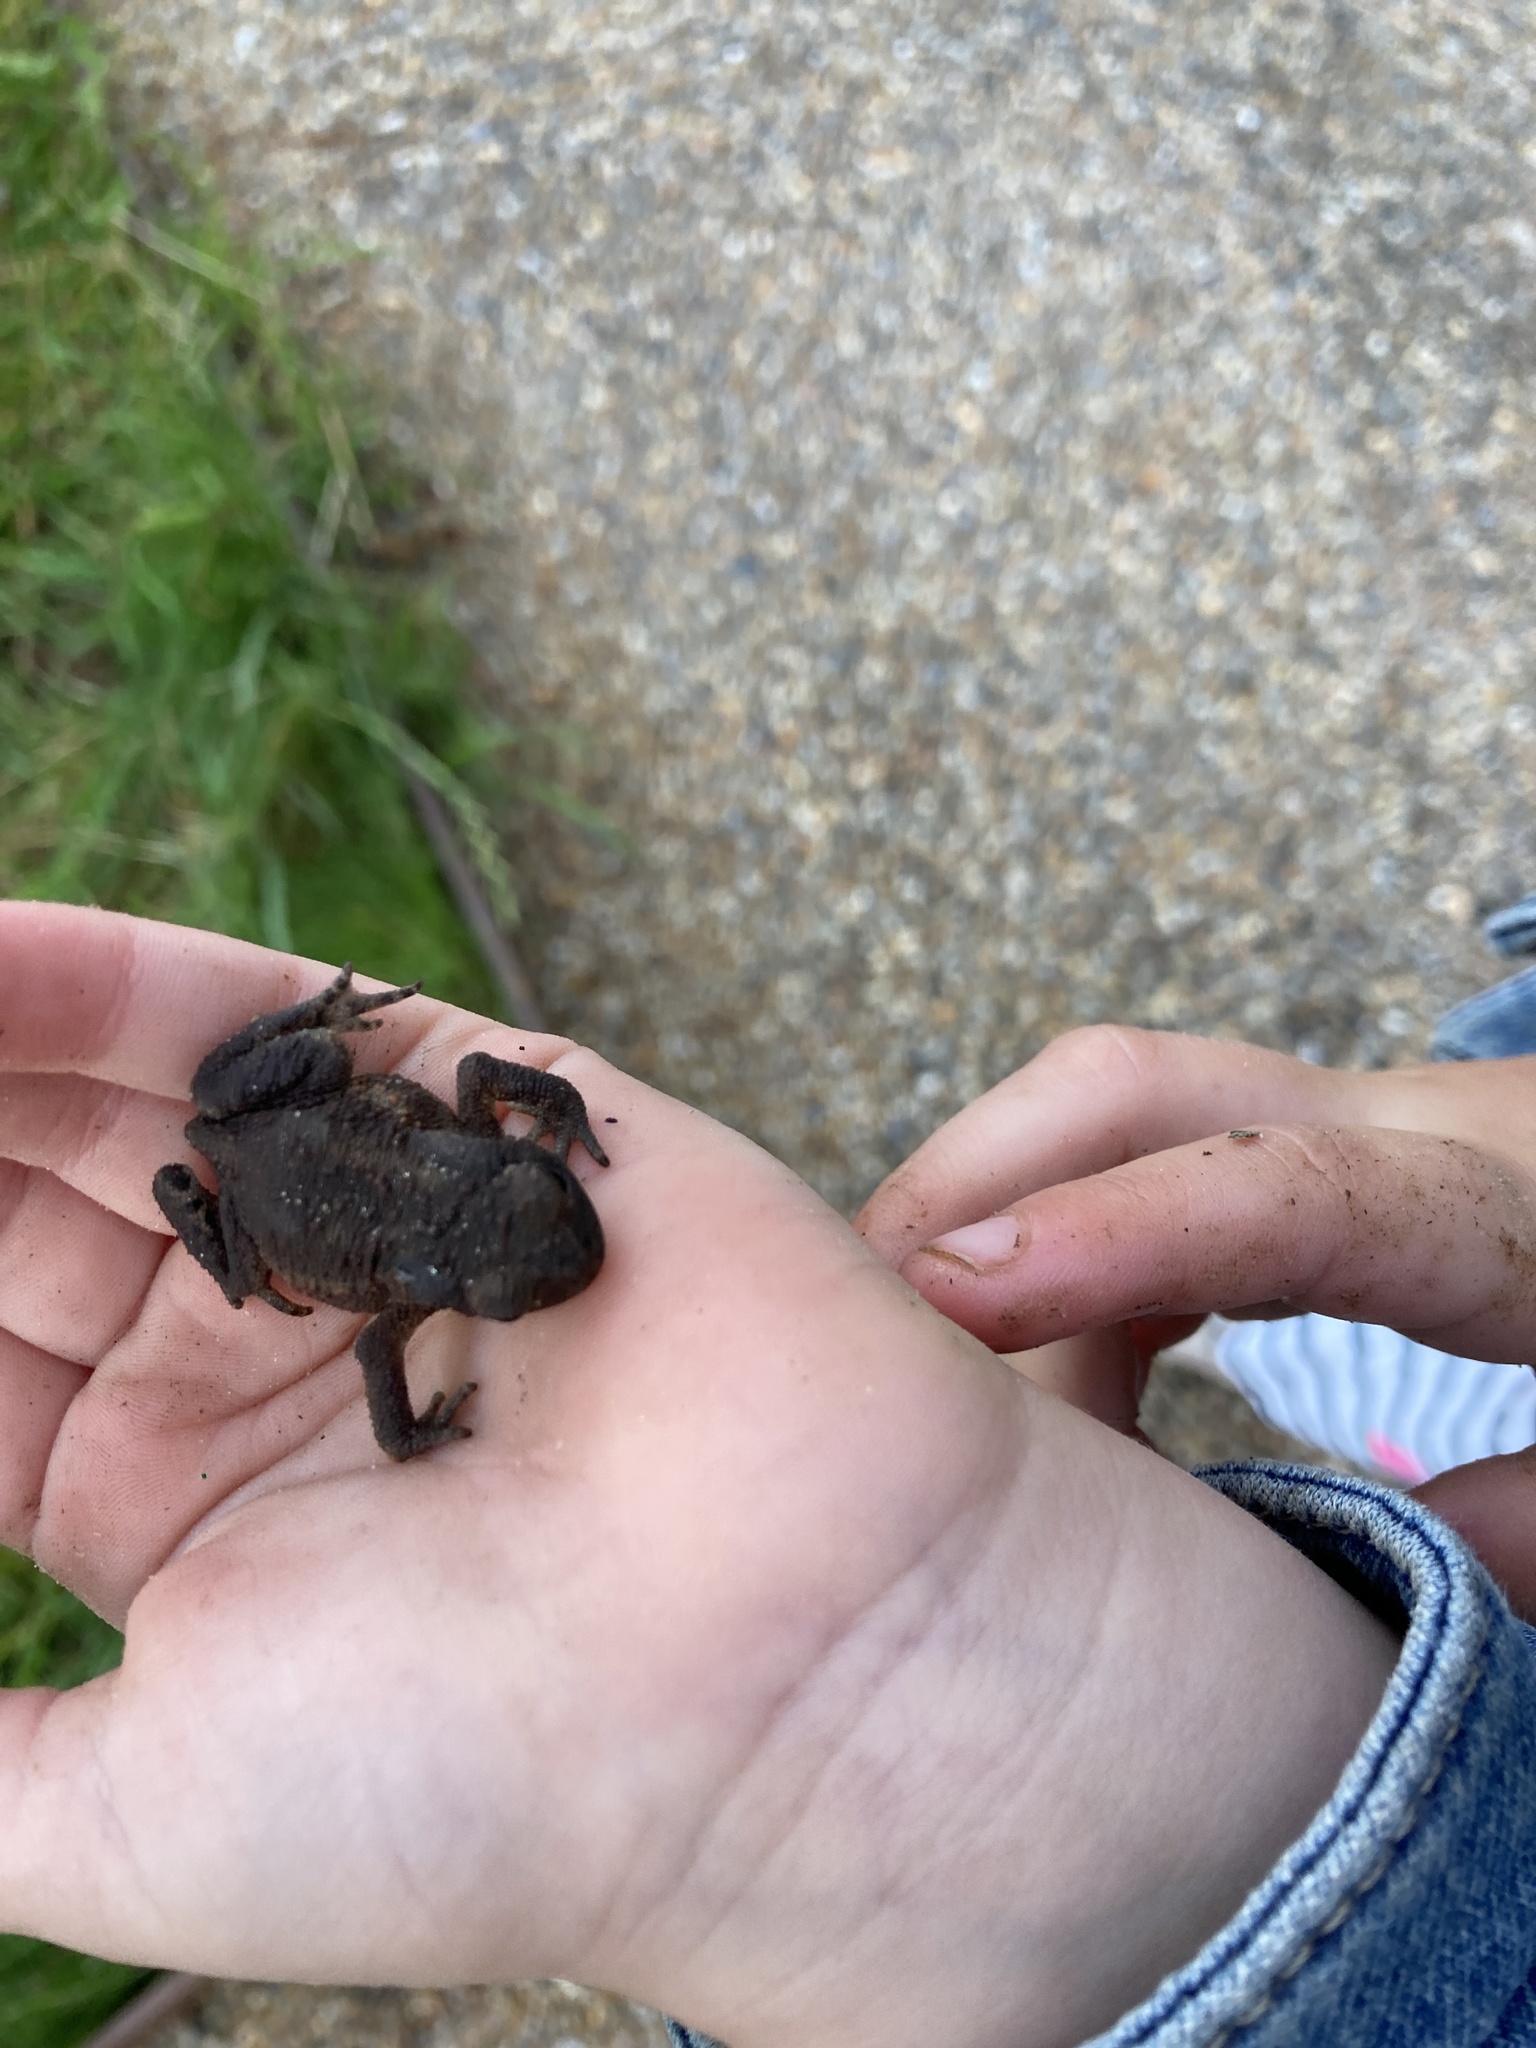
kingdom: Animalia
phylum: Chordata
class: Amphibia
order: Anura
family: Bufonidae
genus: Bufo
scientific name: Bufo bufo
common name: Common toad
